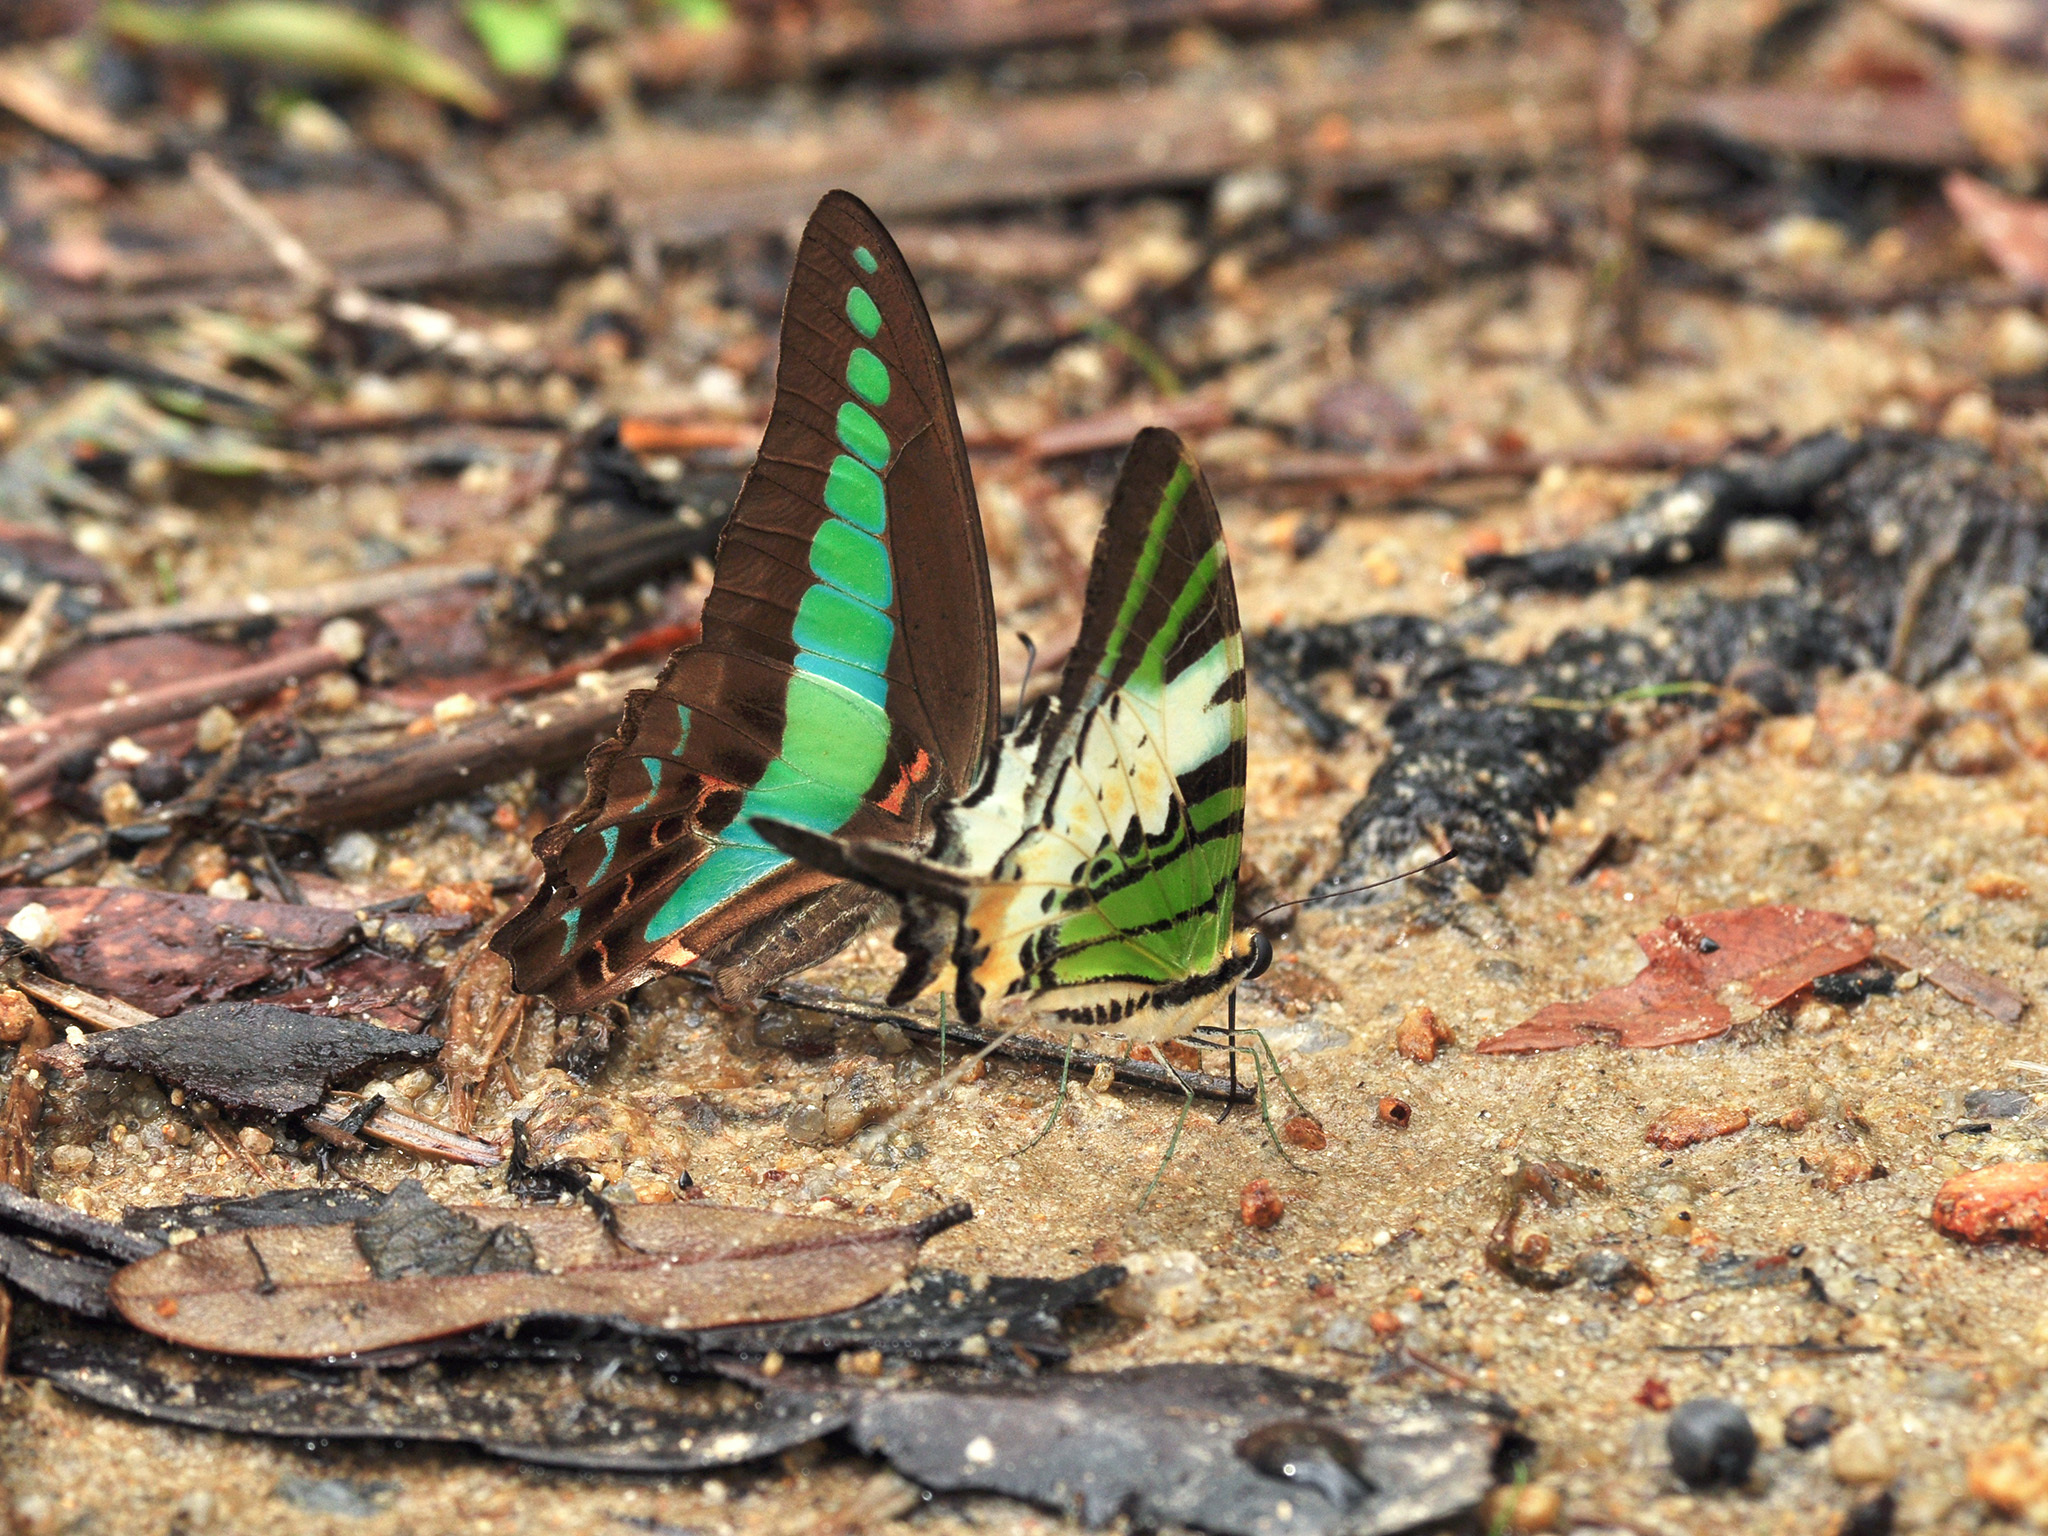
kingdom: Animalia
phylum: Arthropoda
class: Insecta
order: Lepidoptera
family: Papilionidae
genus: Graphium
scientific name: Graphium antiphates
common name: Fivebar swordtail
